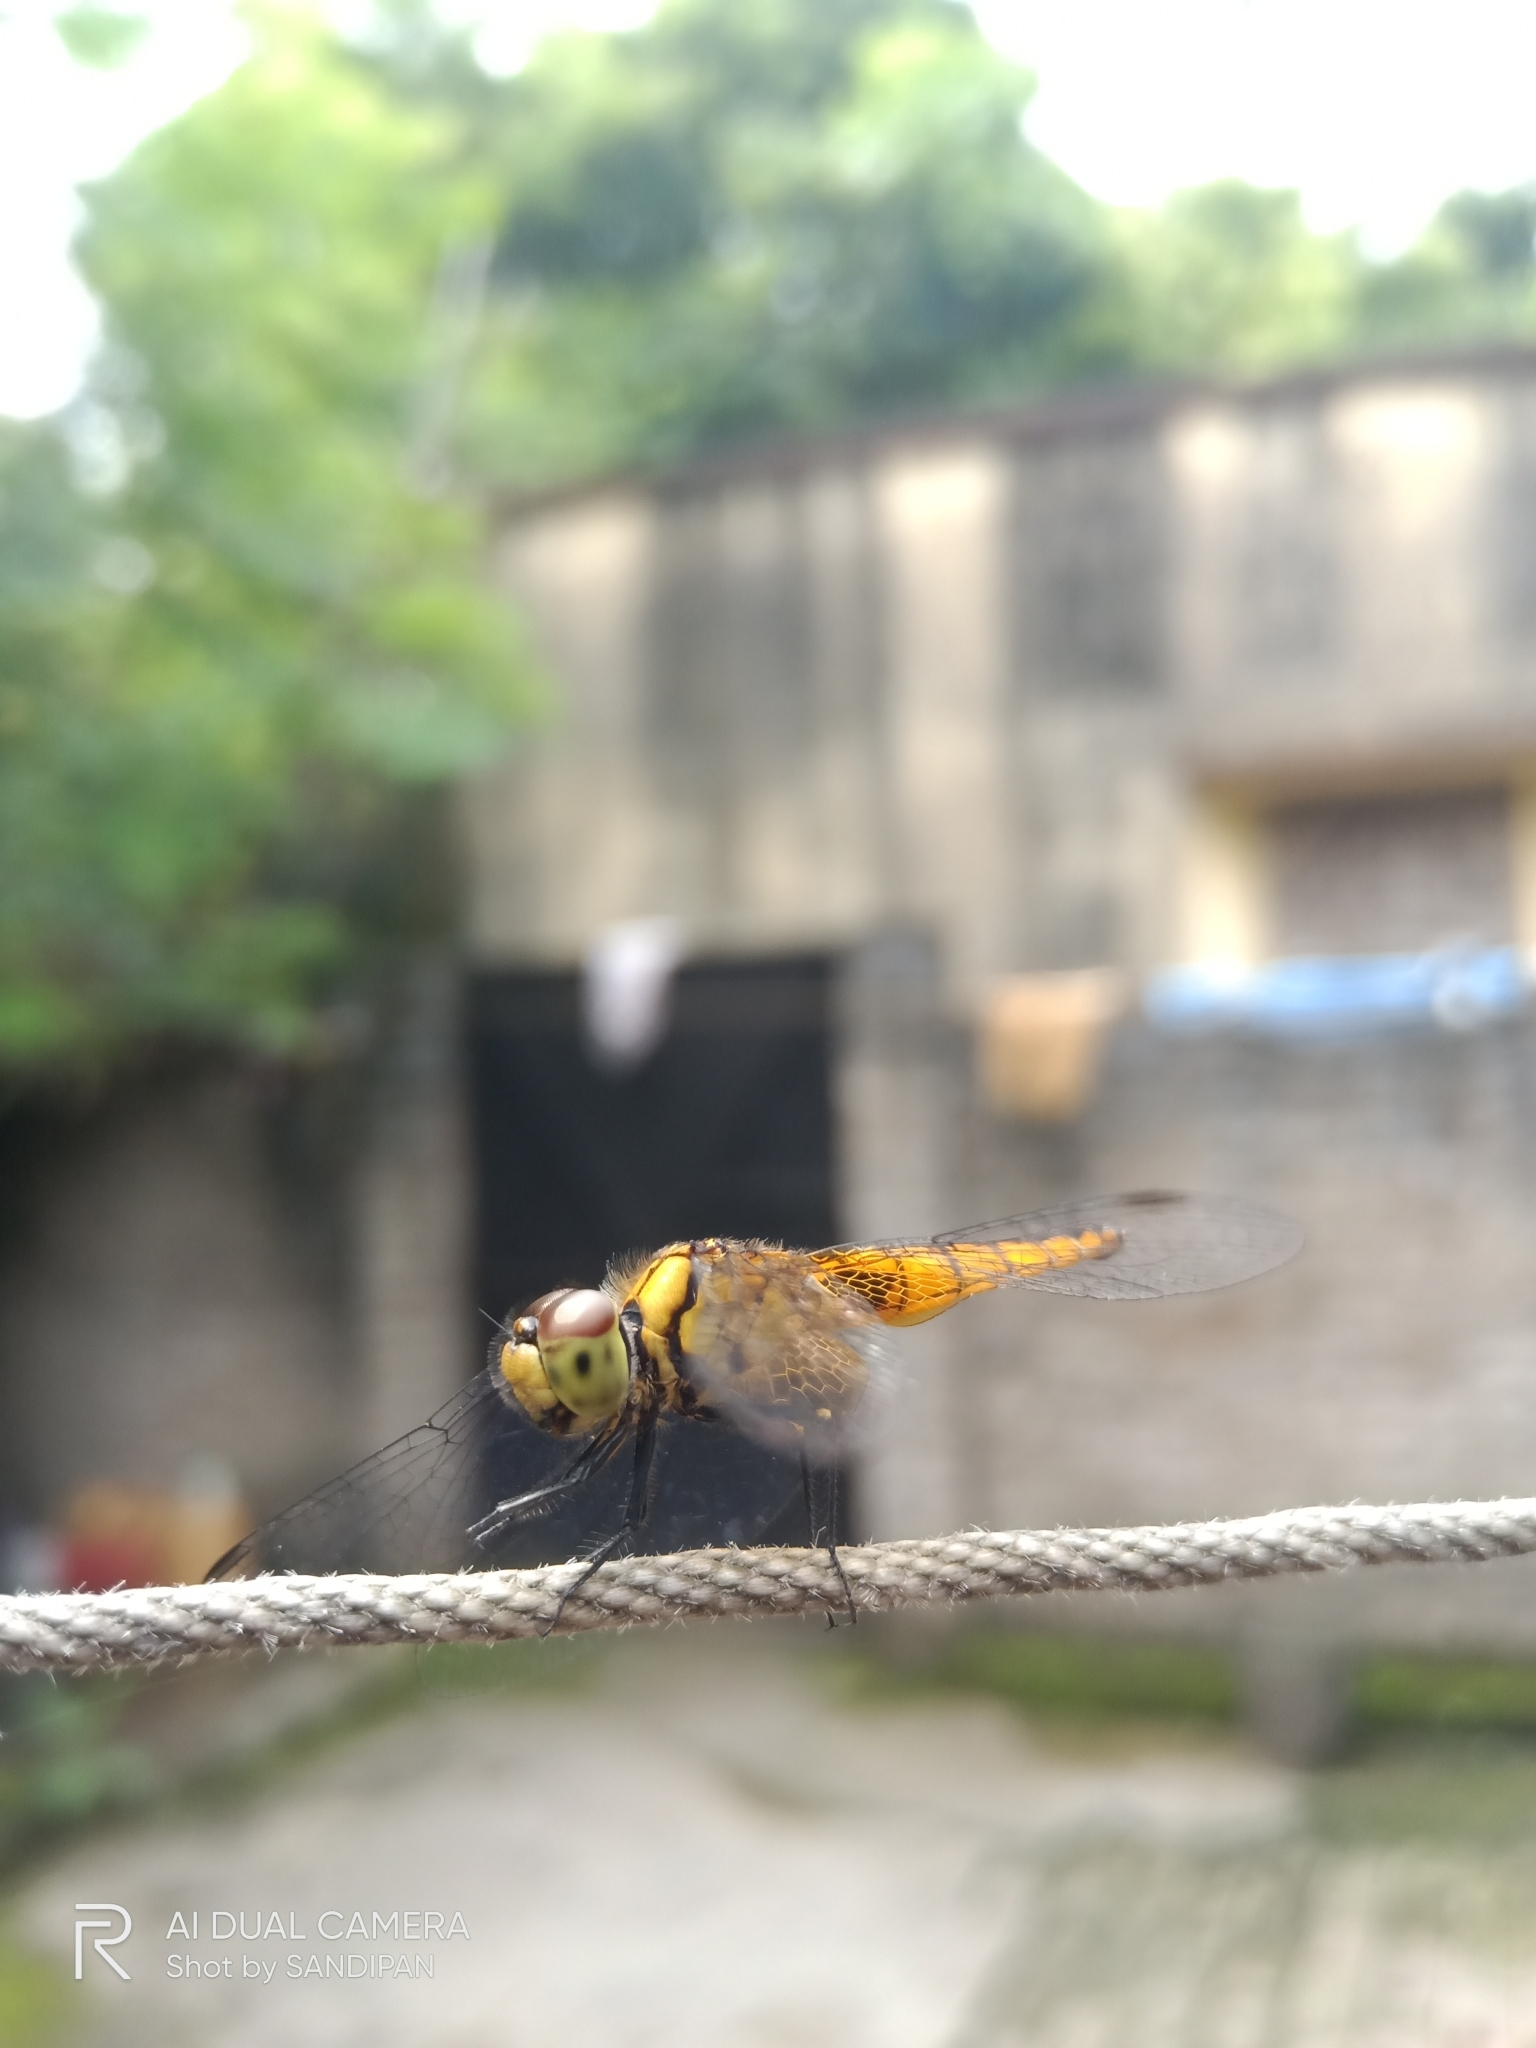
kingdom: Animalia
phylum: Arthropoda
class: Insecta
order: Odonata
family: Libellulidae
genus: Aethriamanta
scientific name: Aethriamanta brevipennis
